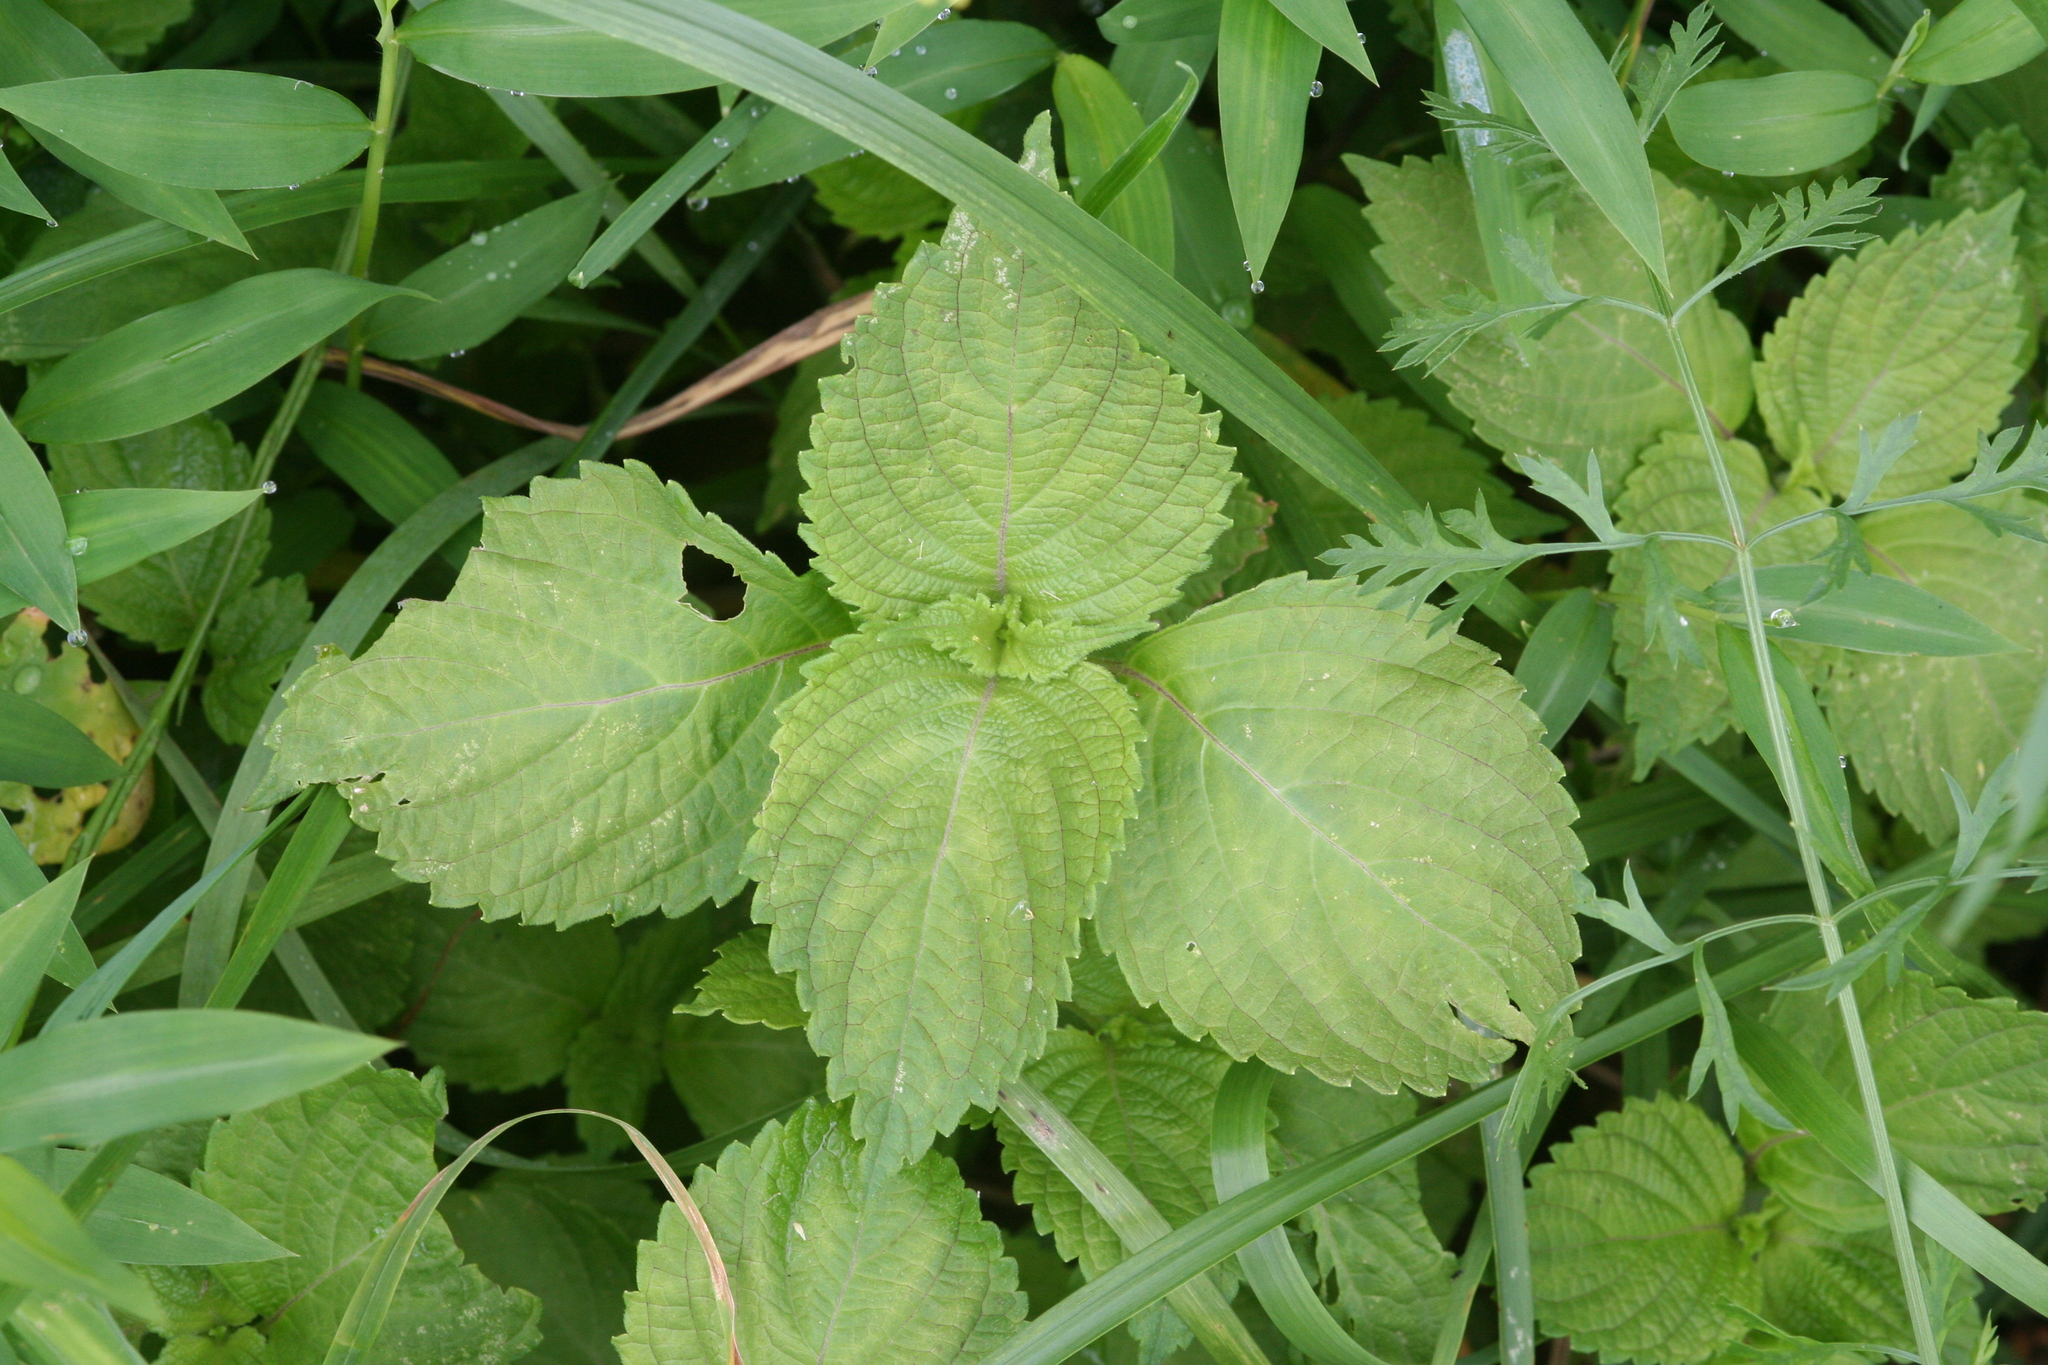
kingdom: Plantae
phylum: Tracheophyta
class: Magnoliopsida
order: Lamiales
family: Lamiaceae
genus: Perilla
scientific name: Perilla frutescens
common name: Perilla
